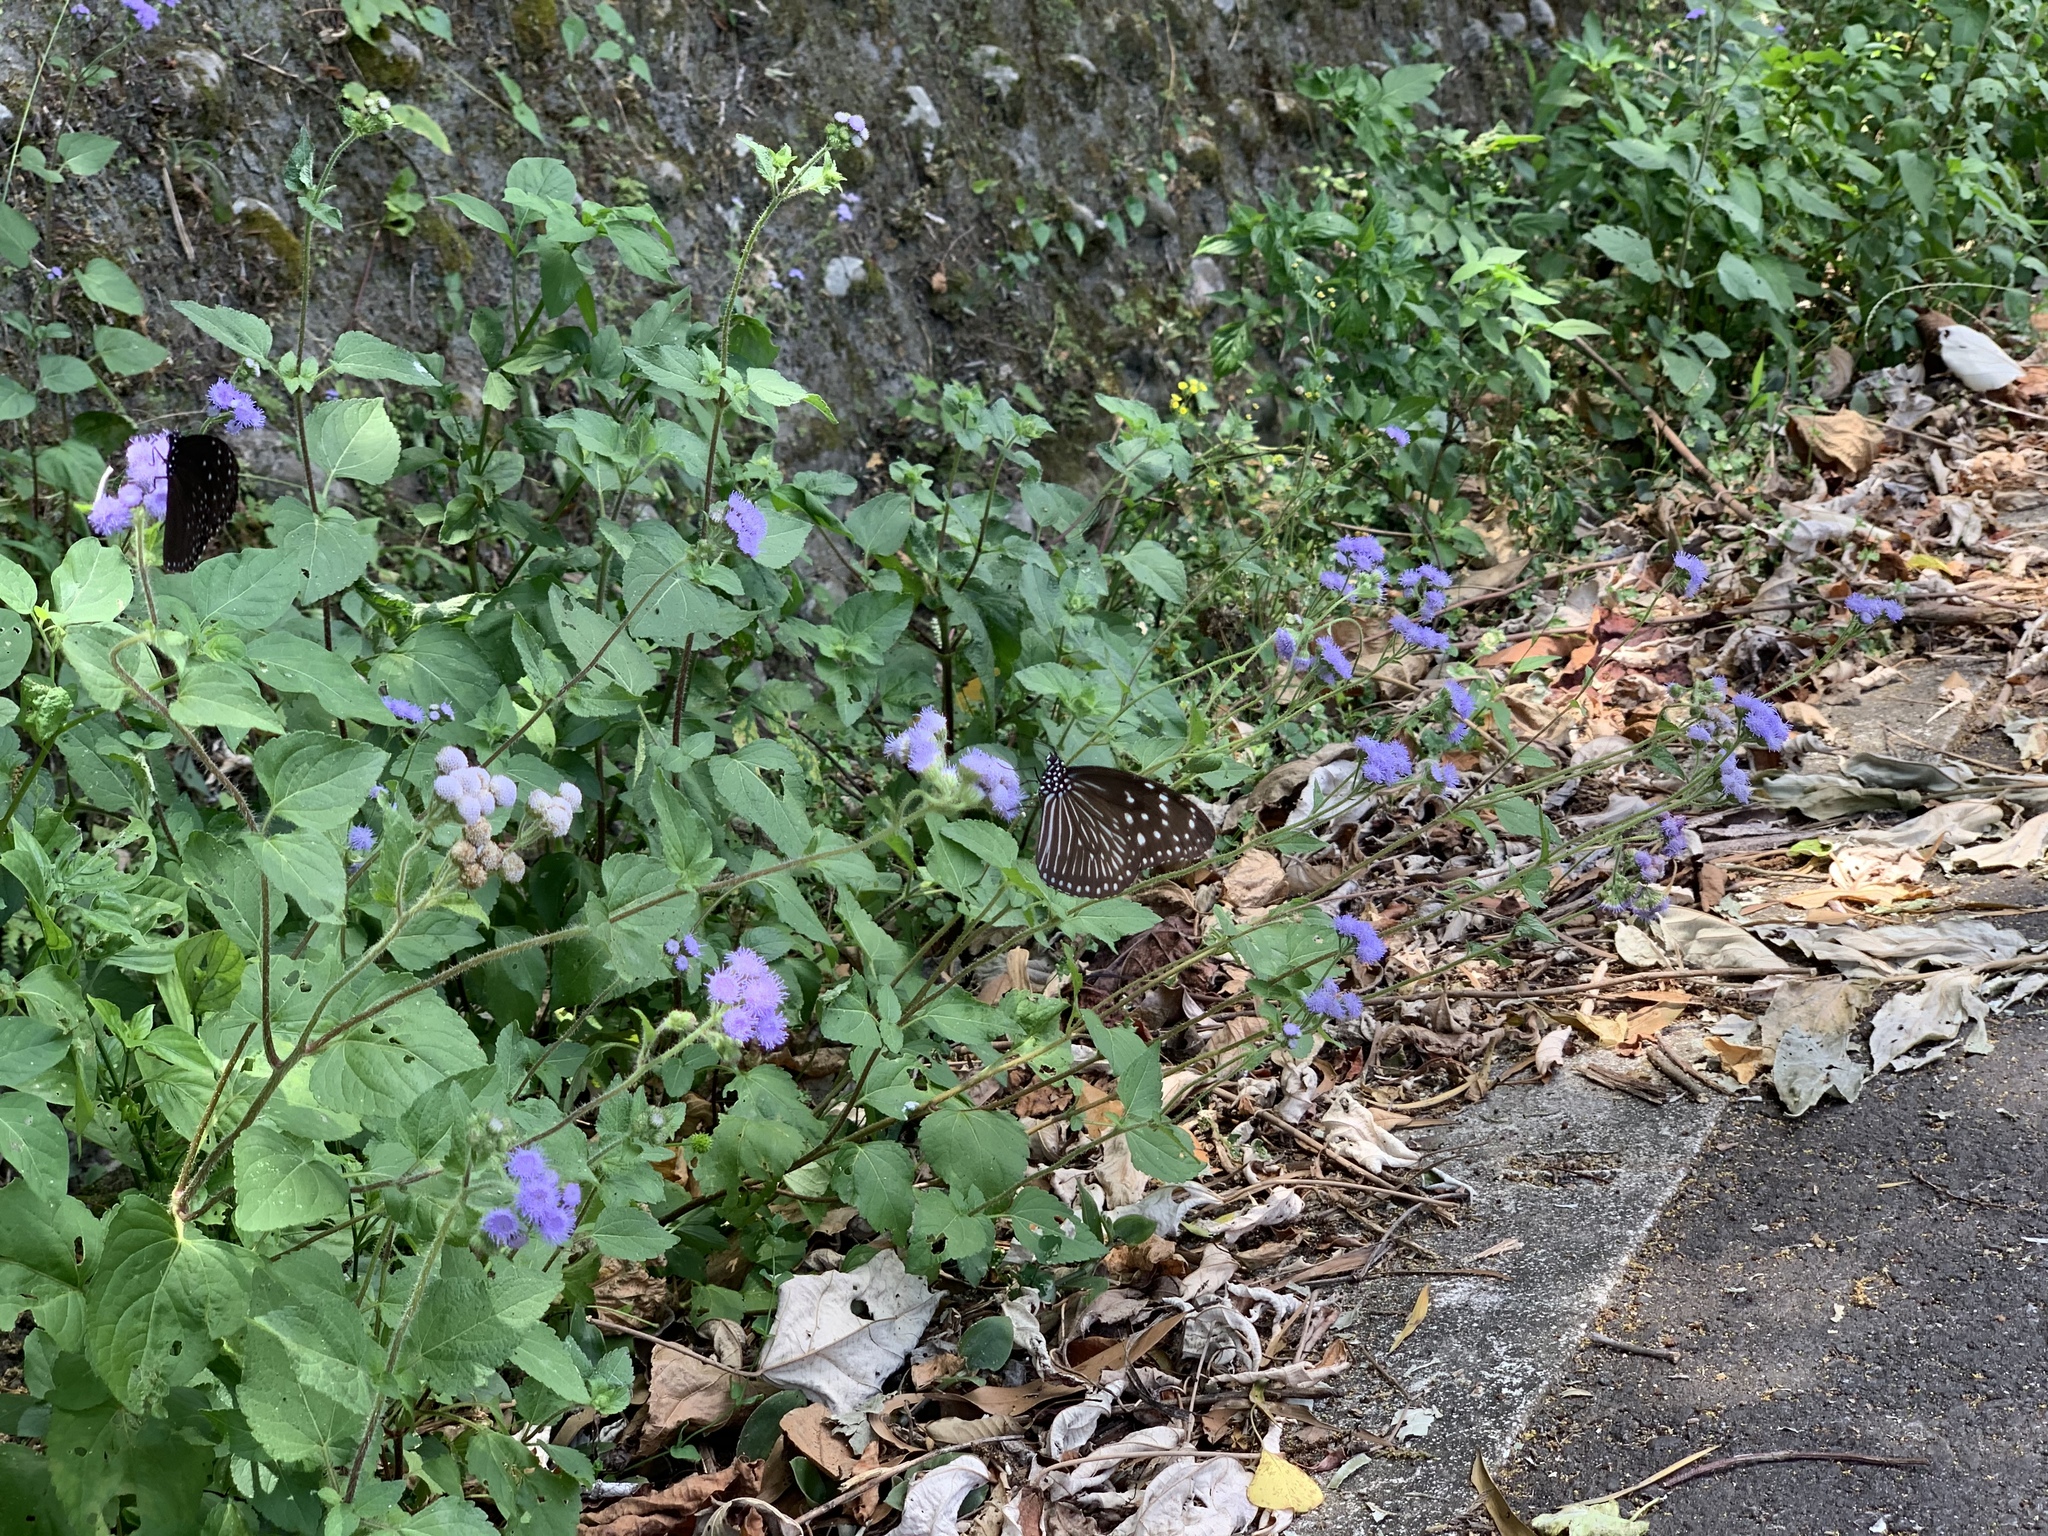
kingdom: Plantae
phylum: Tracheophyta
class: Magnoliopsida
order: Asterales
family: Asteraceae
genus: Ageratum
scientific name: Ageratum houstonianum
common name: Bluemink
